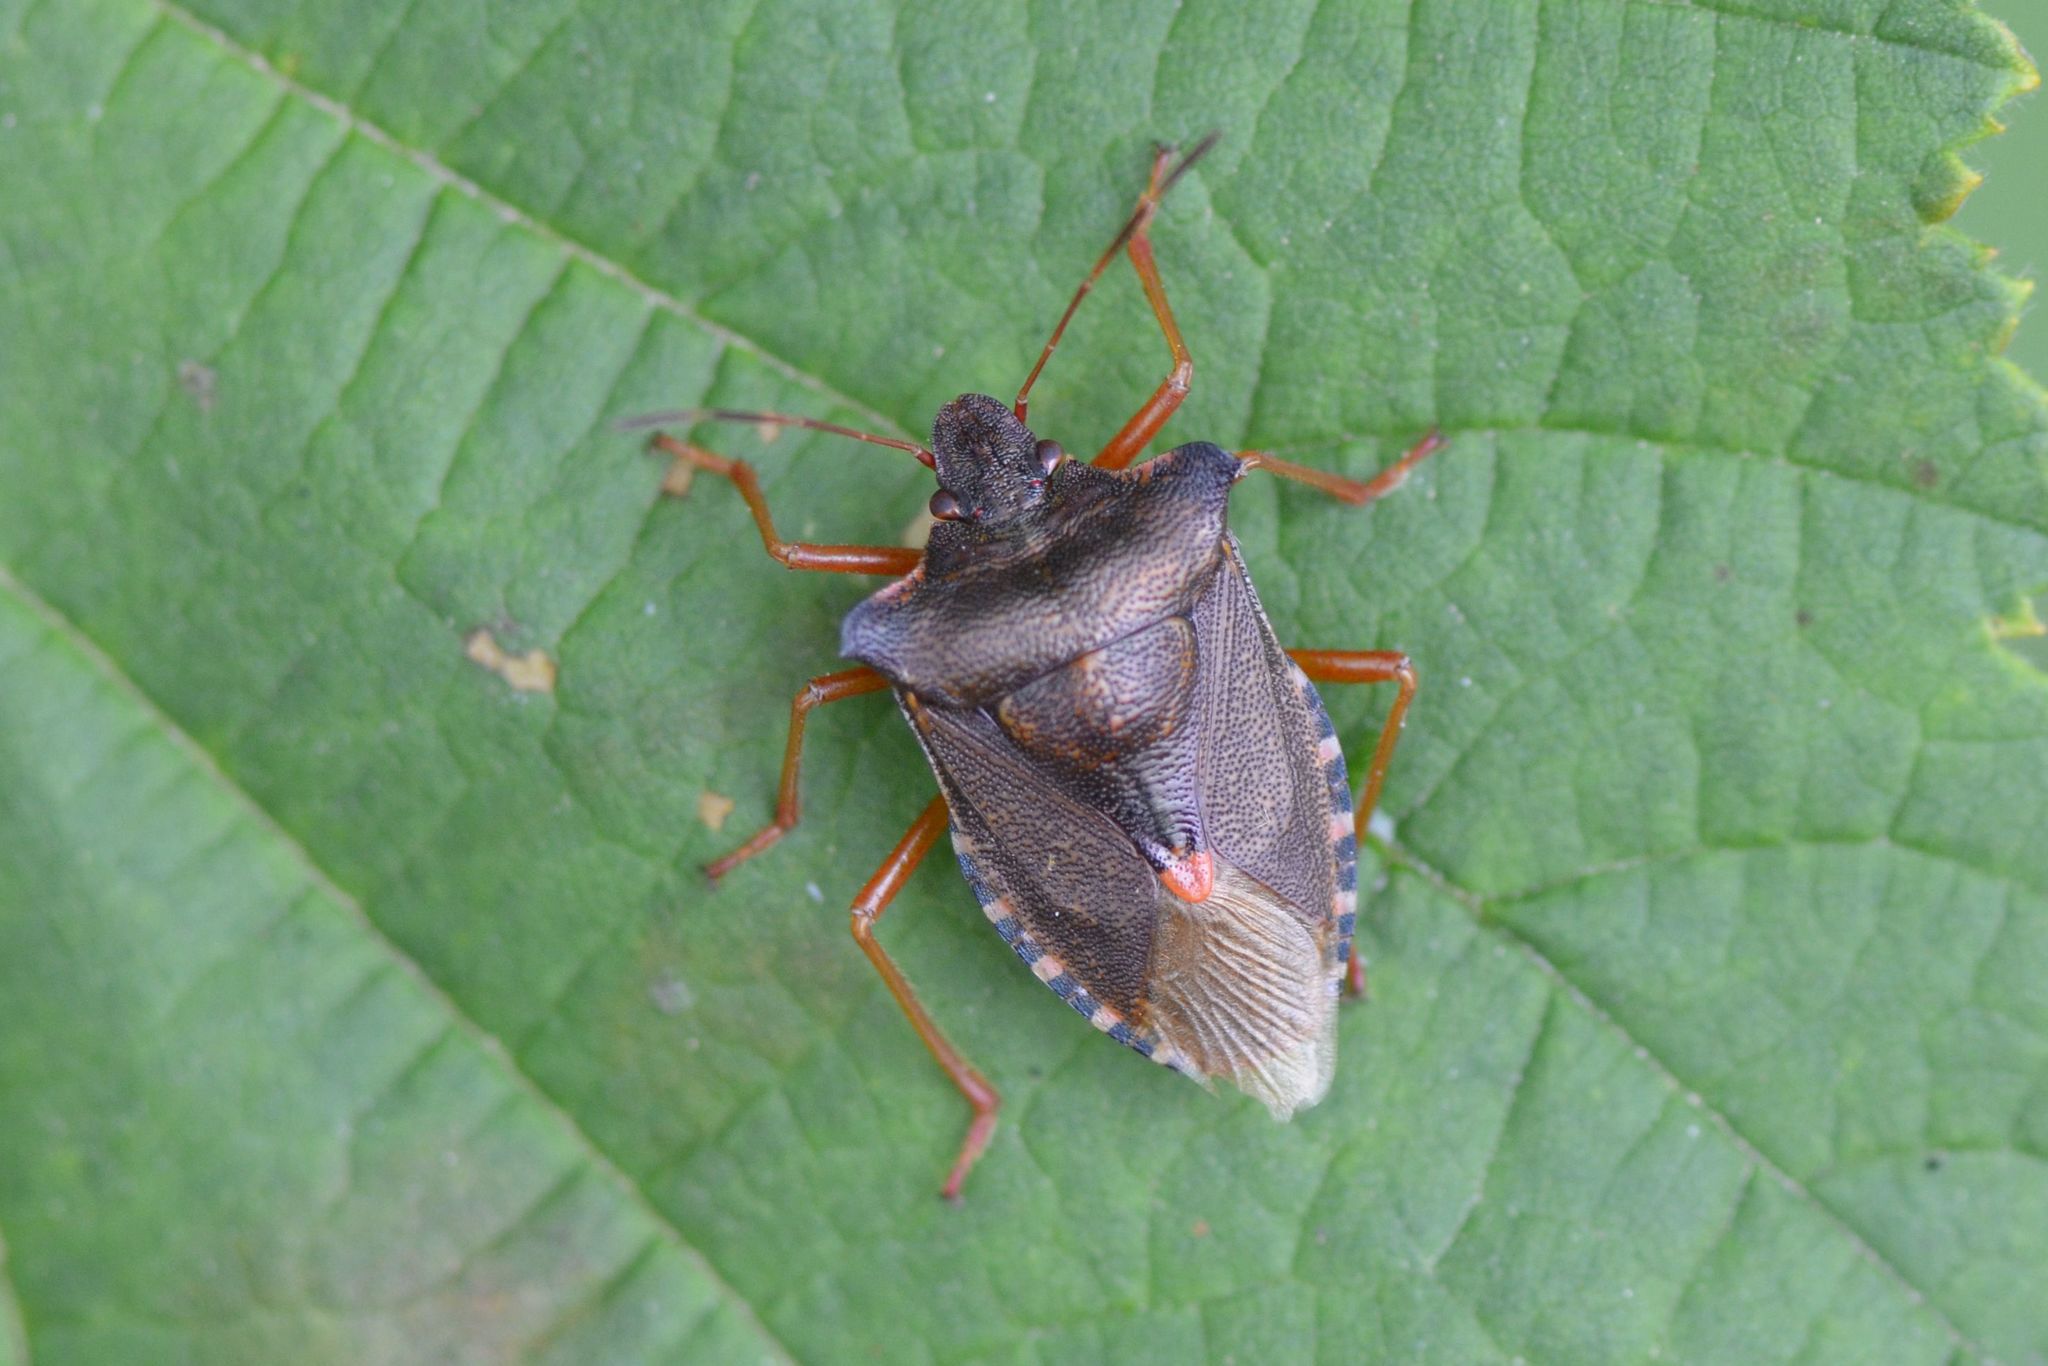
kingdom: Animalia
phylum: Arthropoda
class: Insecta
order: Hemiptera
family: Pentatomidae
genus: Pentatoma
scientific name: Pentatoma rufipes
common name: Forest bug
